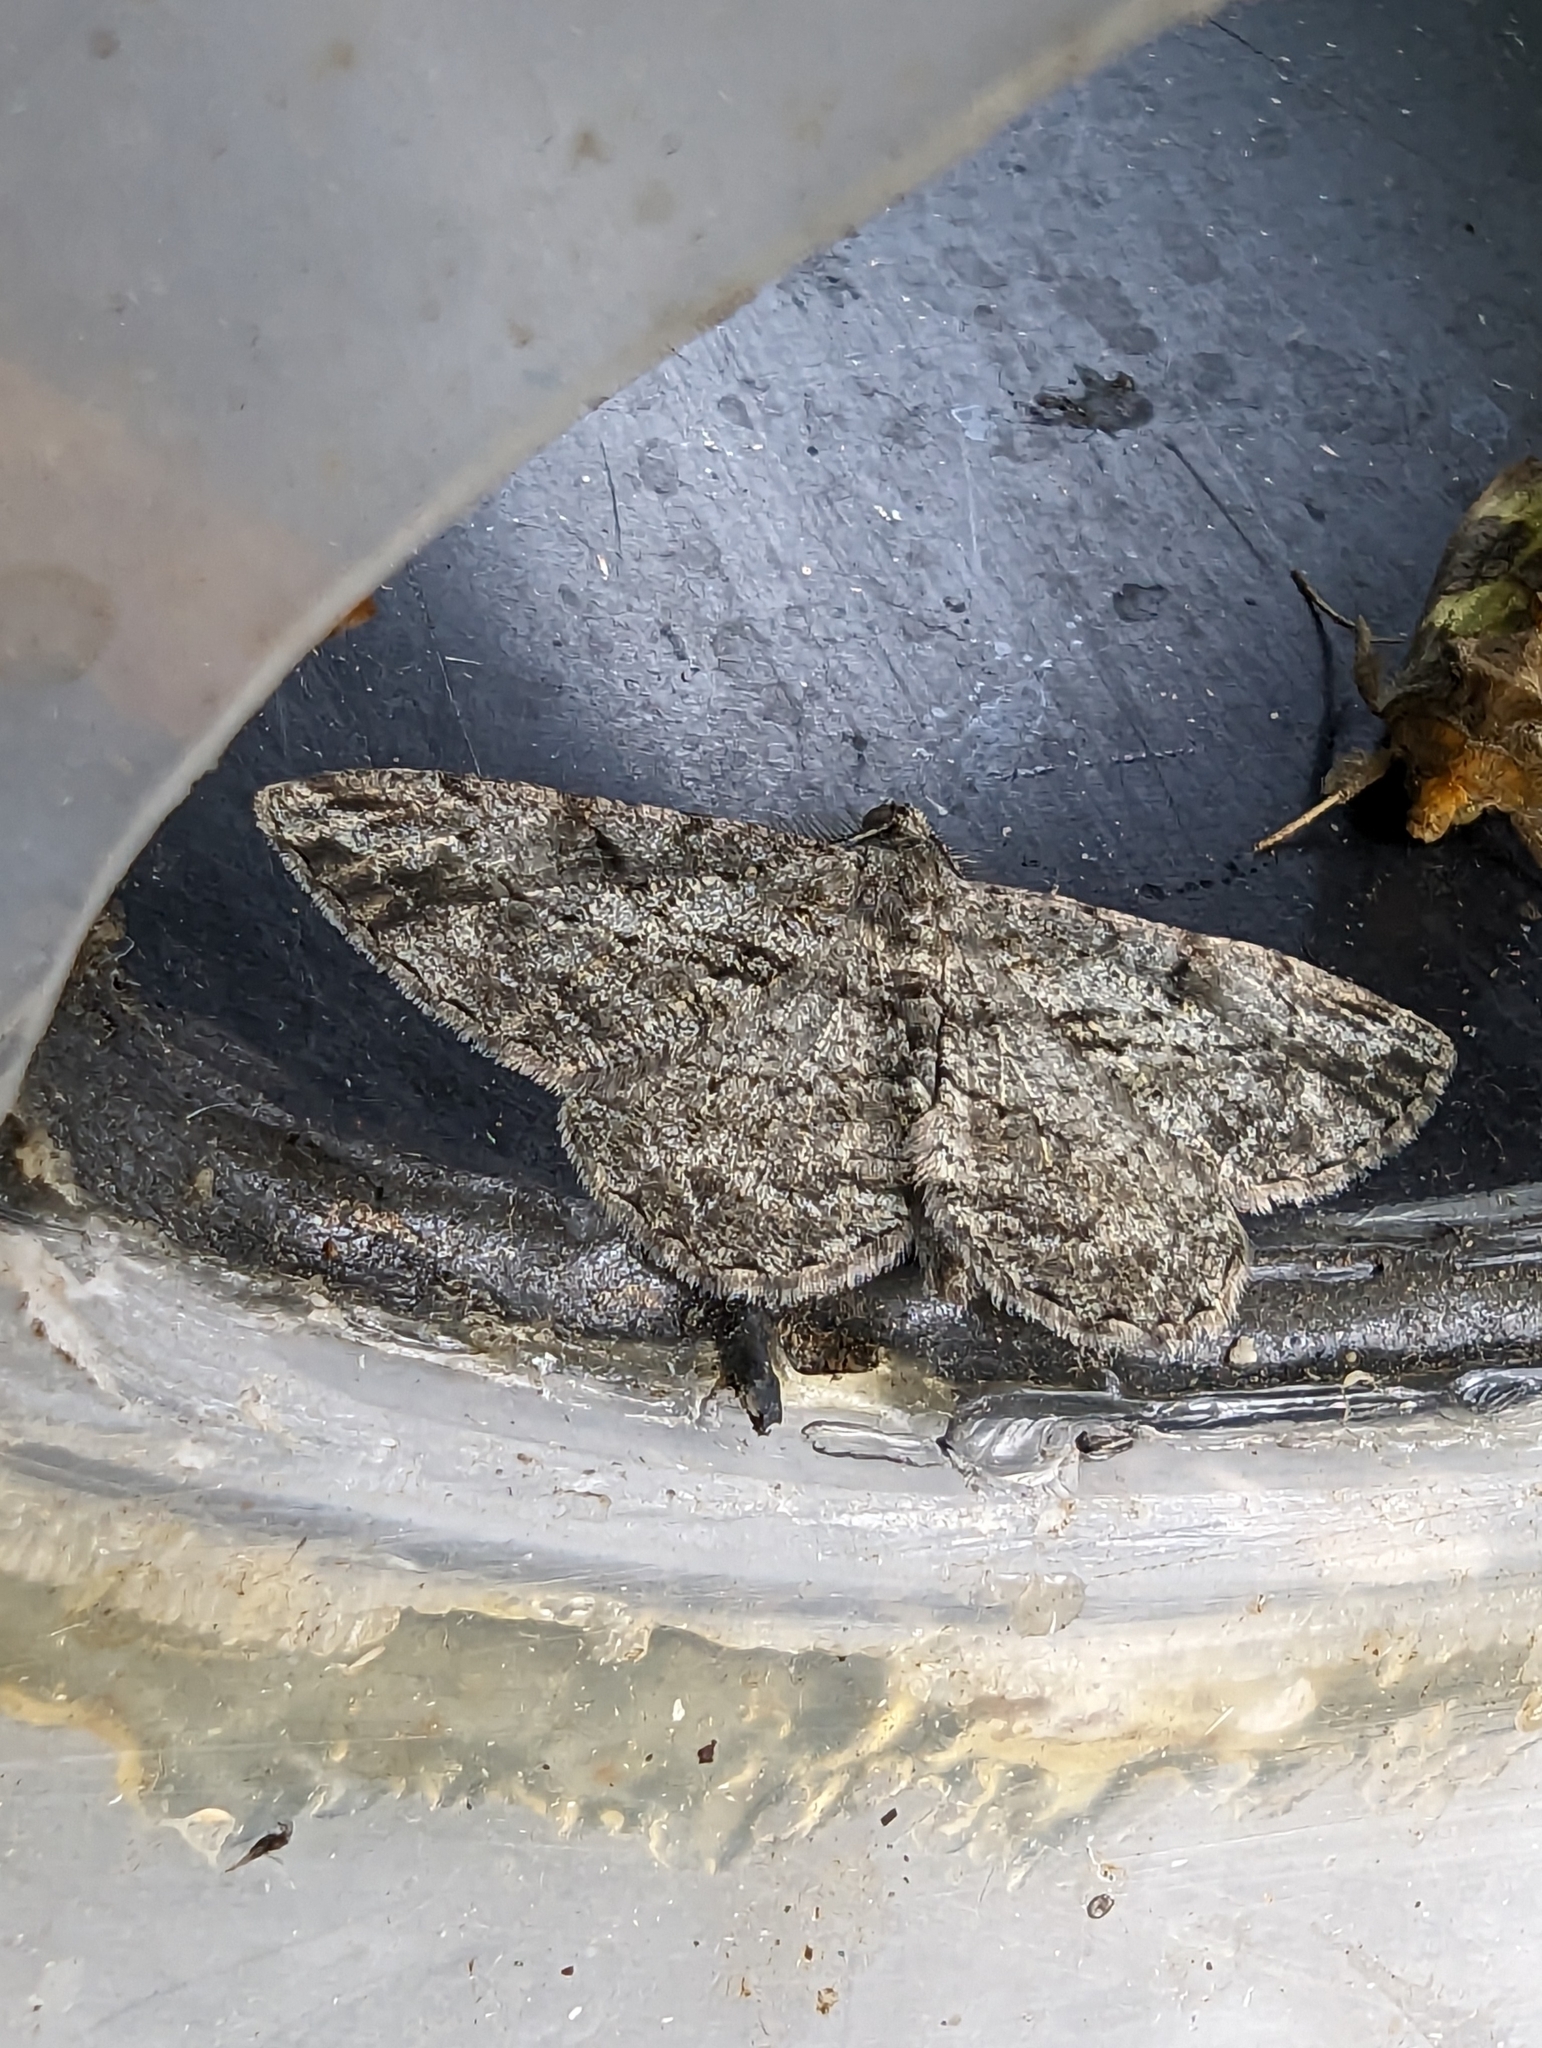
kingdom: Animalia
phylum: Arthropoda
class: Insecta
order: Lepidoptera
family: Geometridae
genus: Peribatodes
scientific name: Peribatodes rhomboidaria
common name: Willow beauty
